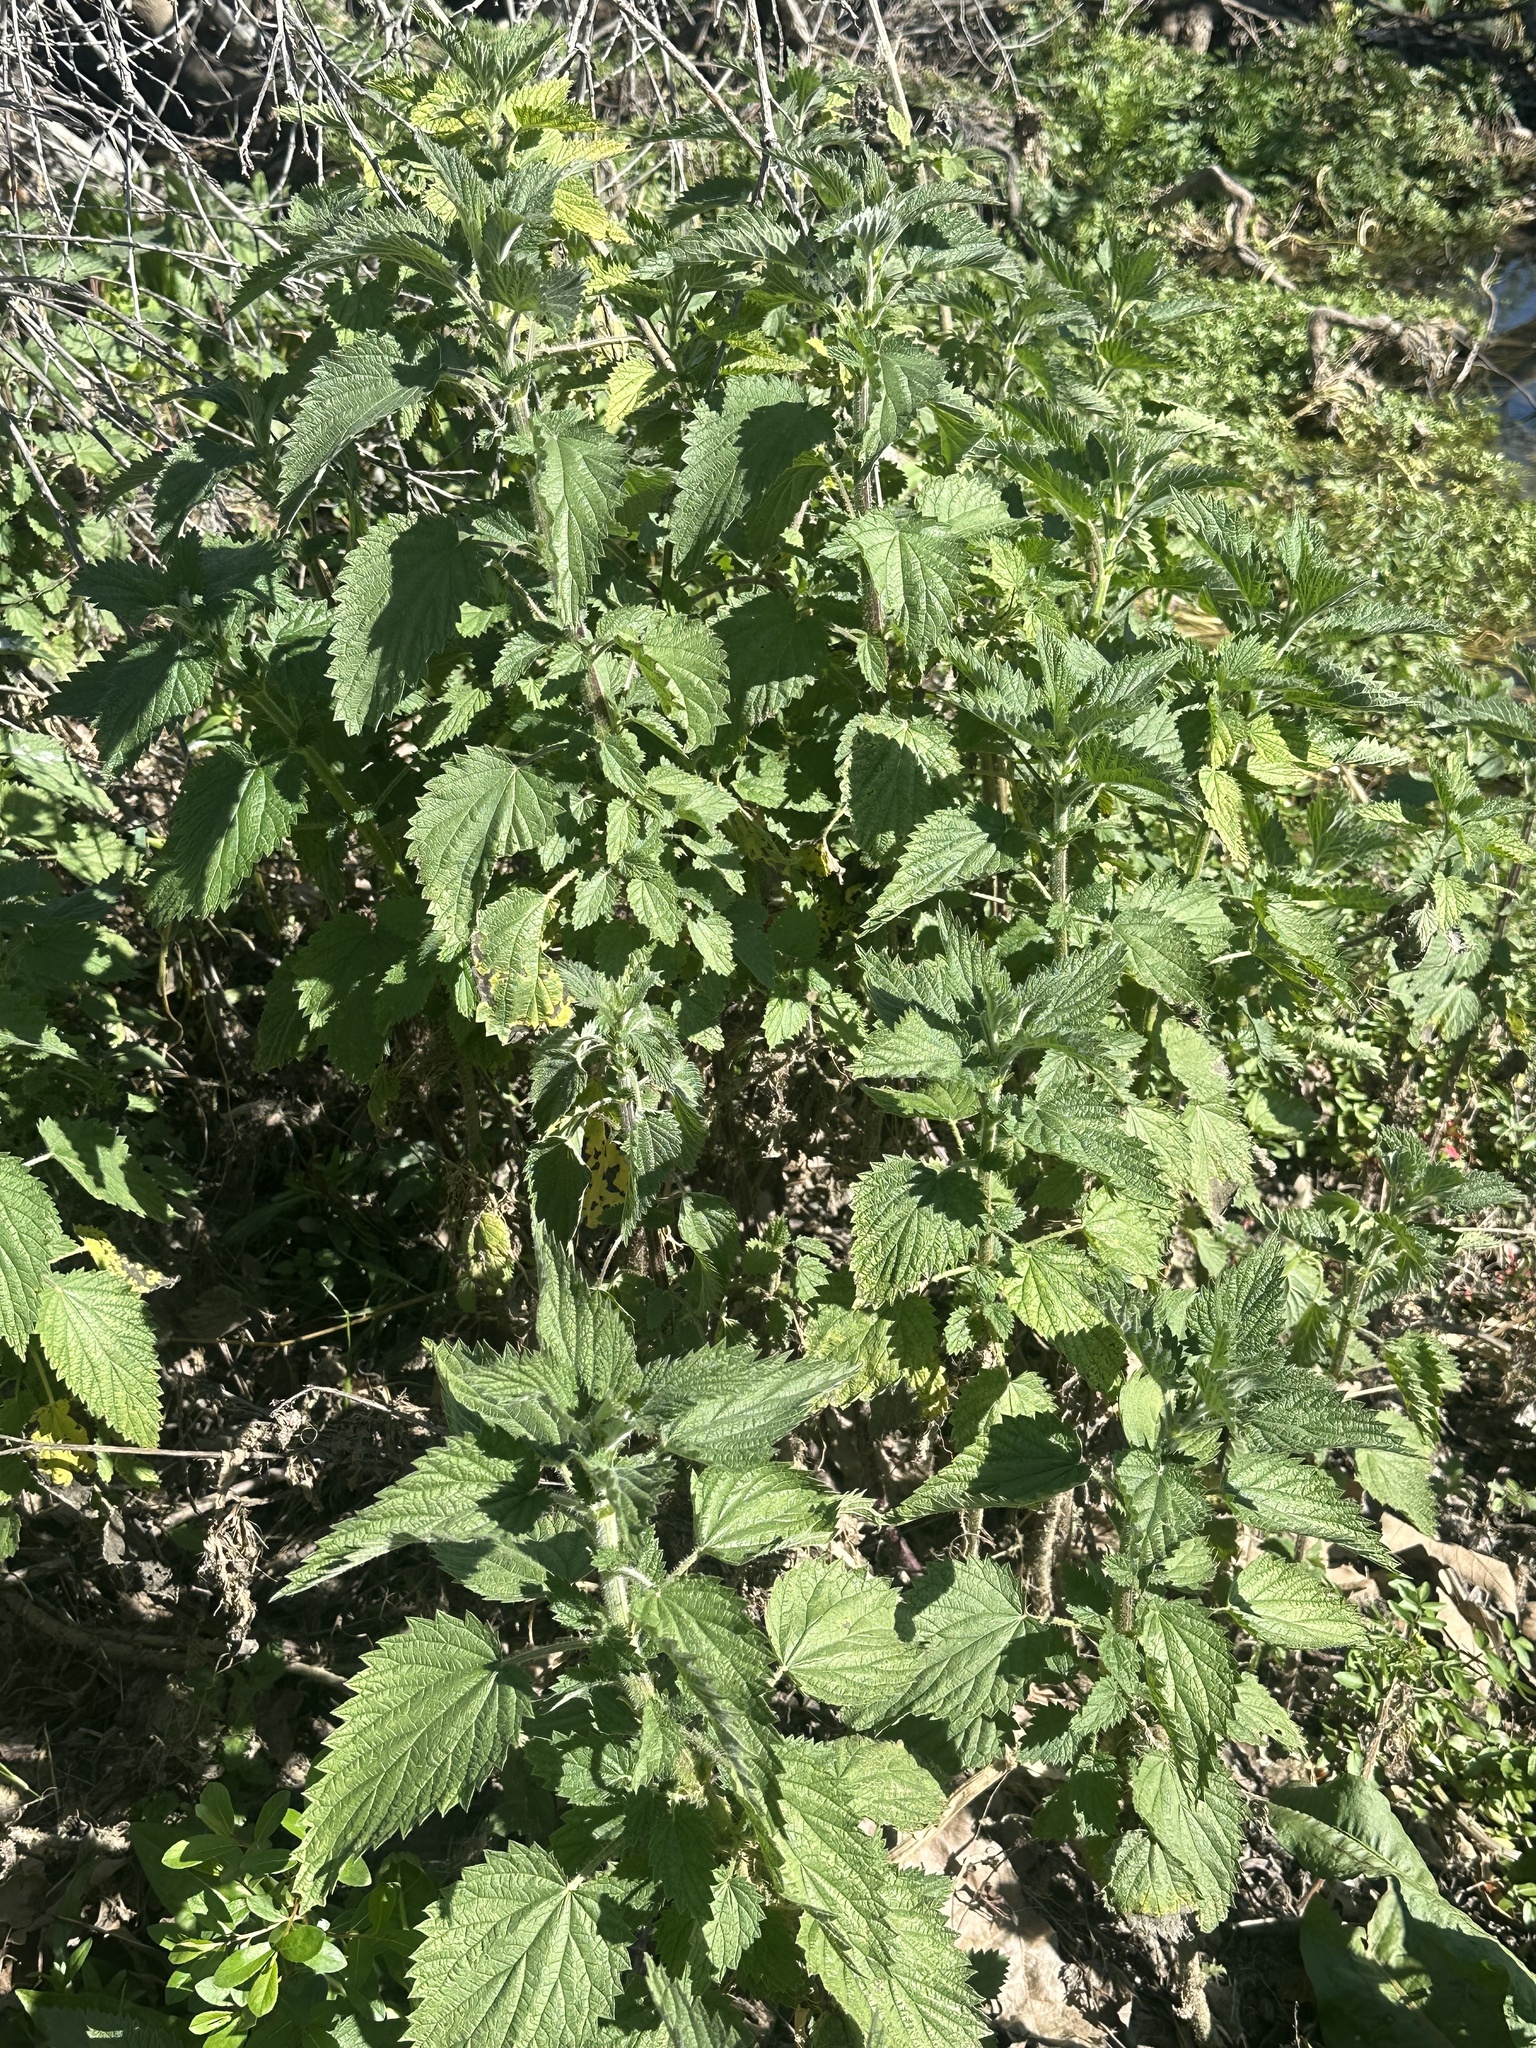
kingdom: Plantae
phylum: Tracheophyta
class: Magnoliopsida
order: Rosales
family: Urticaceae
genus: Urtica
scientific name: Urtica dioica
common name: Common nettle
